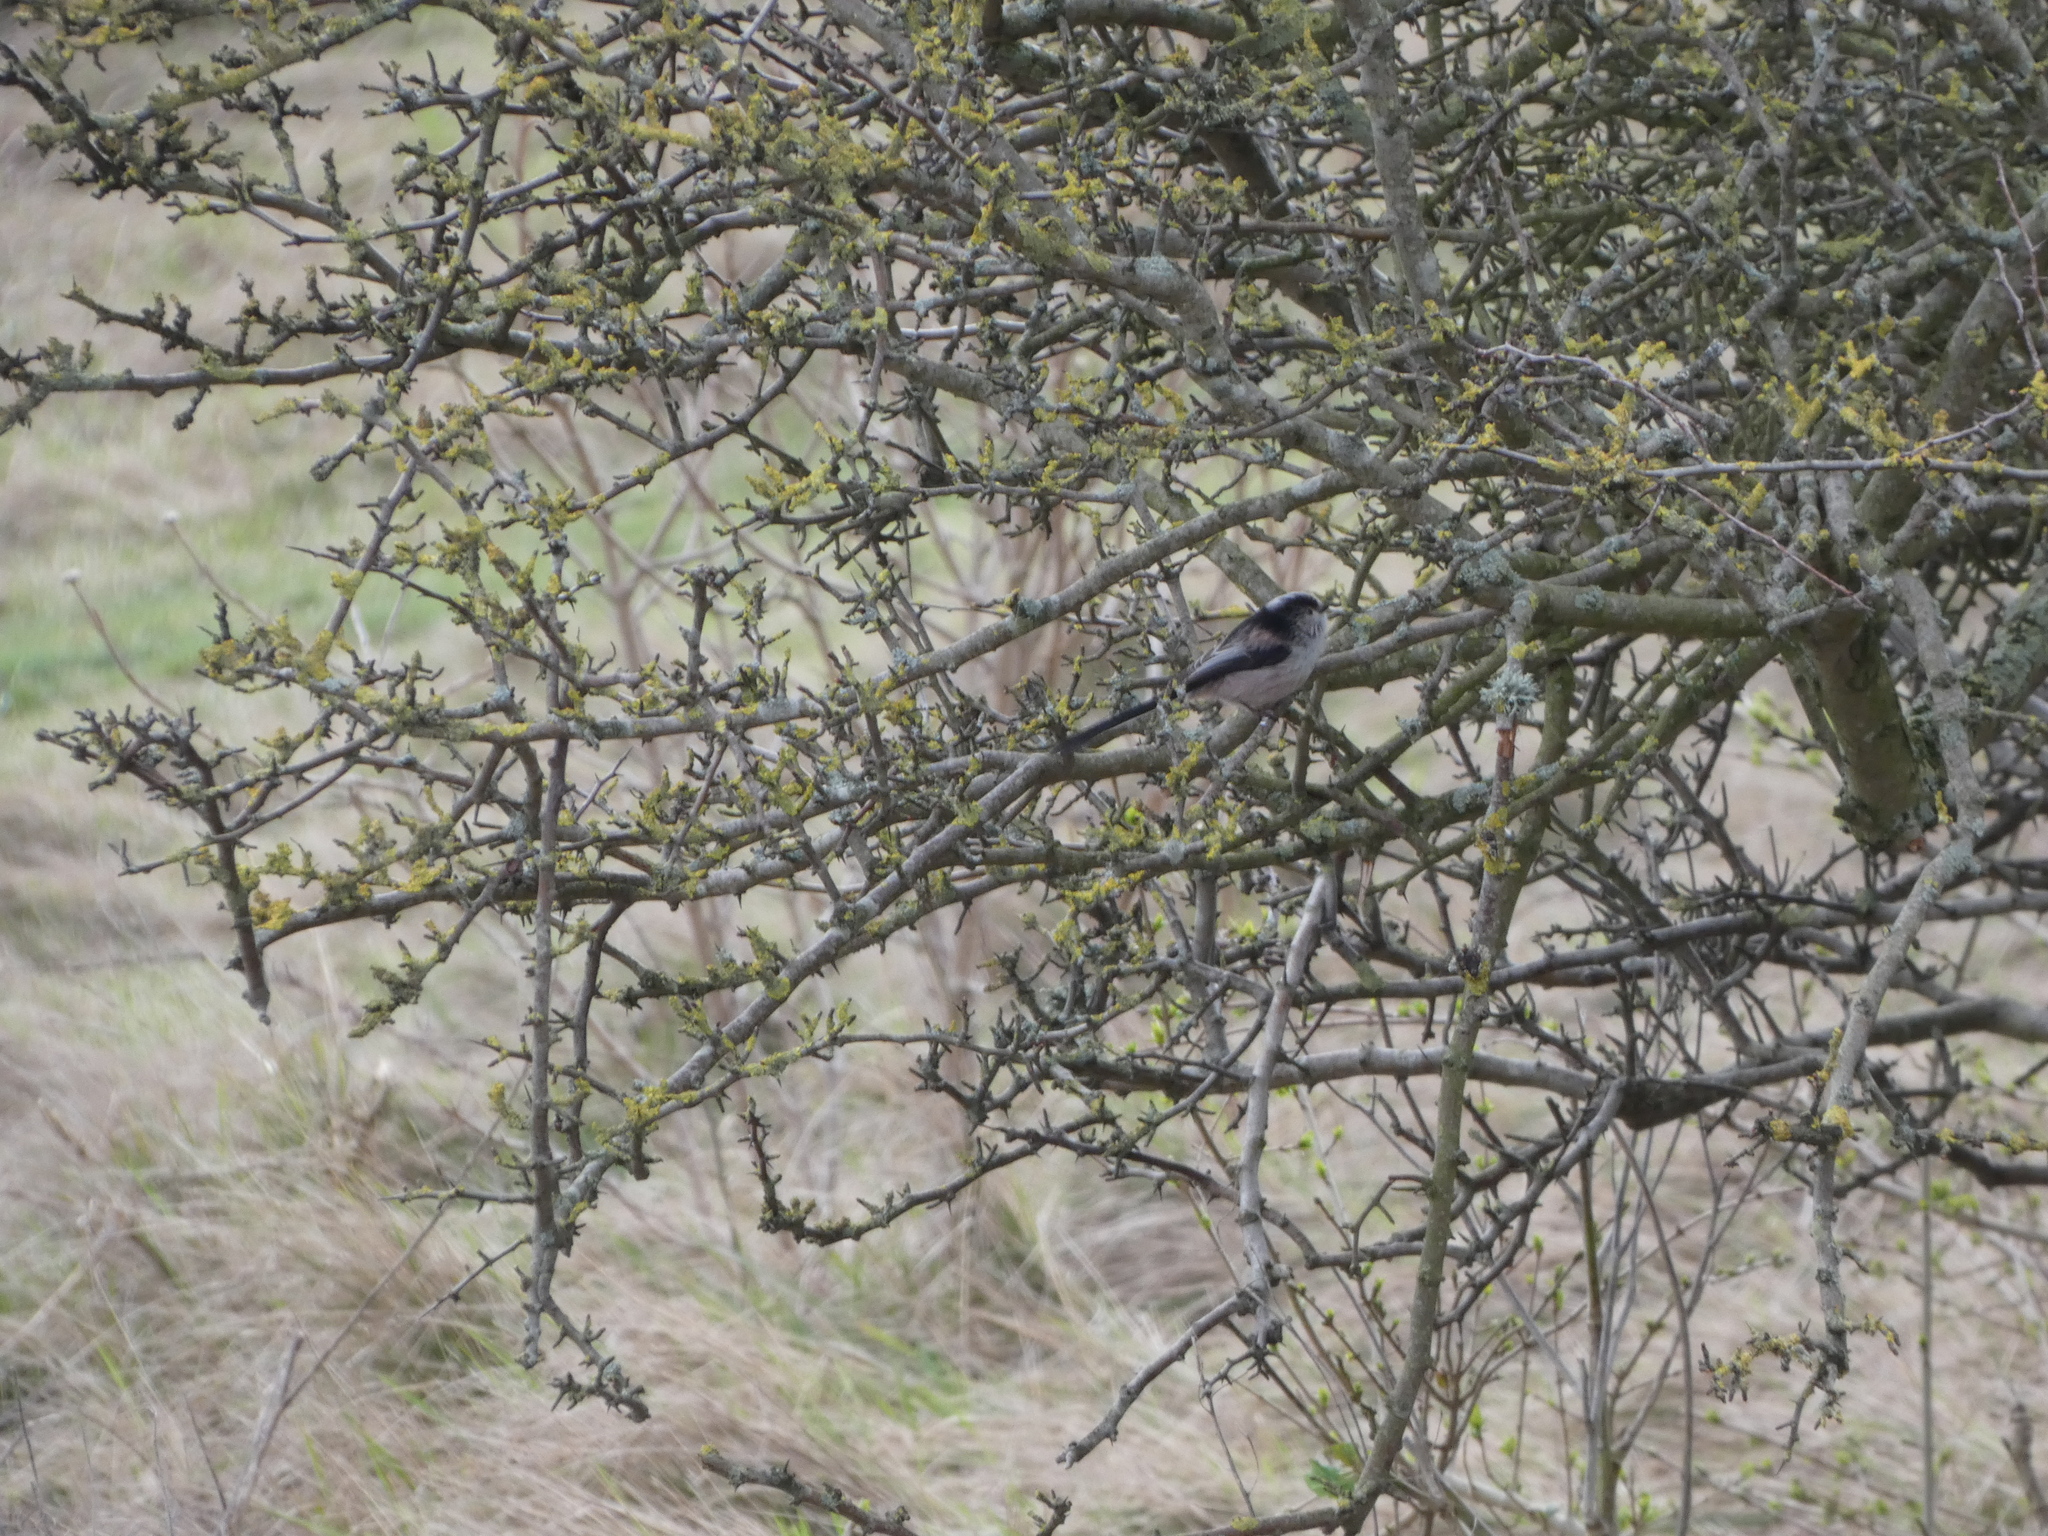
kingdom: Animalia
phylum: Chordata
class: Aves
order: Passeriformes
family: Aegithalidae
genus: Aegithalos
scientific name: Aegithalos caudatus
